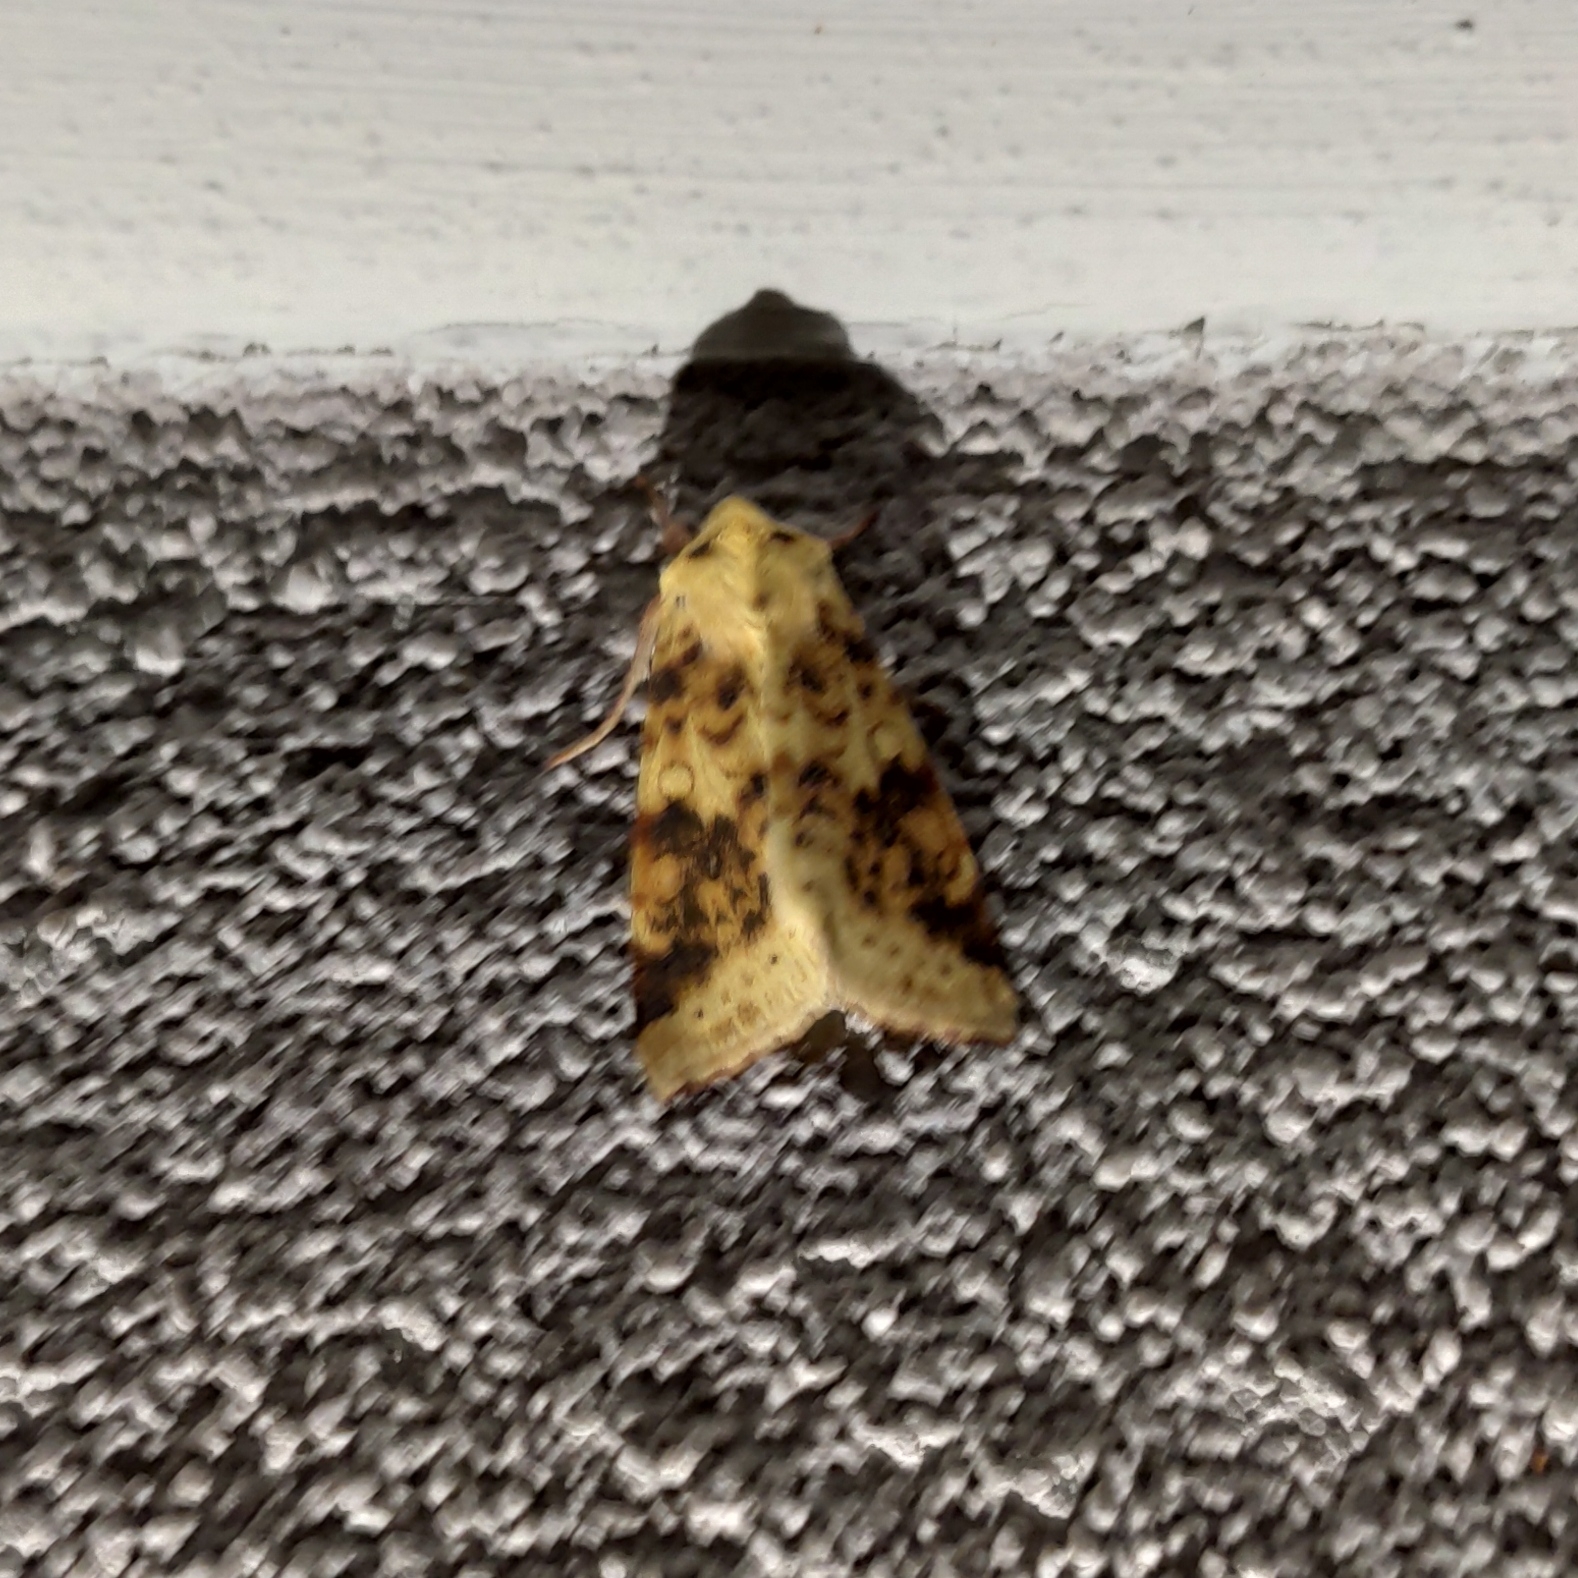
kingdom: Animalia
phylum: Arthropoda
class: Insecta
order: Lepidoptera
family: Noctuidae
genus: Xanthia
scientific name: Xanthia icteritia
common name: The sallow
